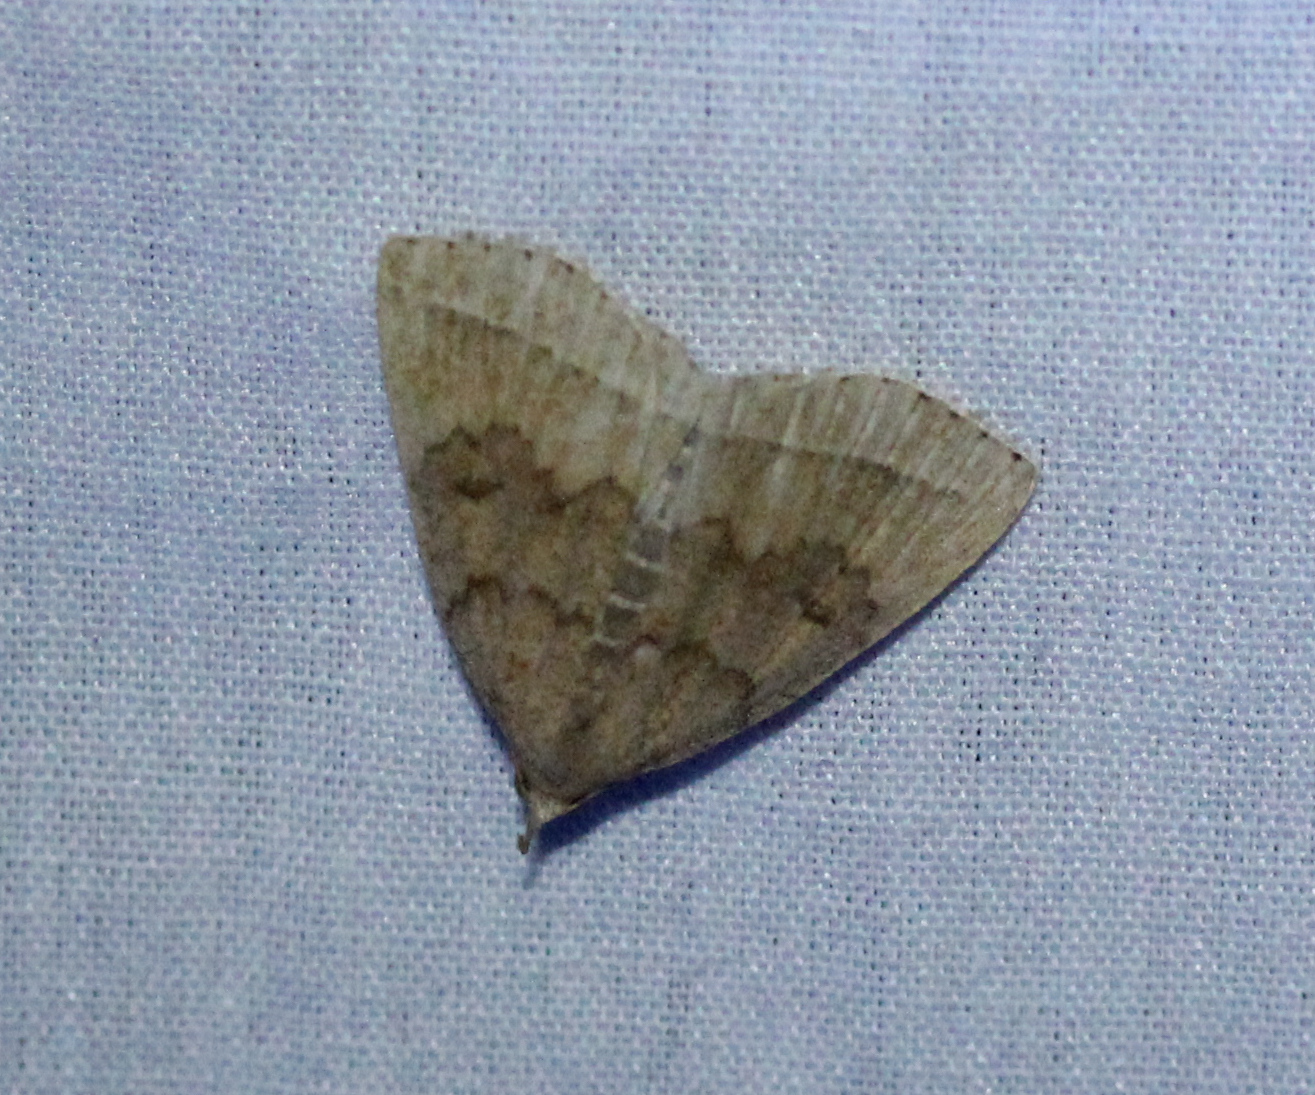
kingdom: Animalia
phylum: Arthropoda
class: Insecta
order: Lepidoptera
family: Erebidae
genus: Zanclognatha
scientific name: Zanclognatha jacchusalis
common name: Yellowish zanclognatha
